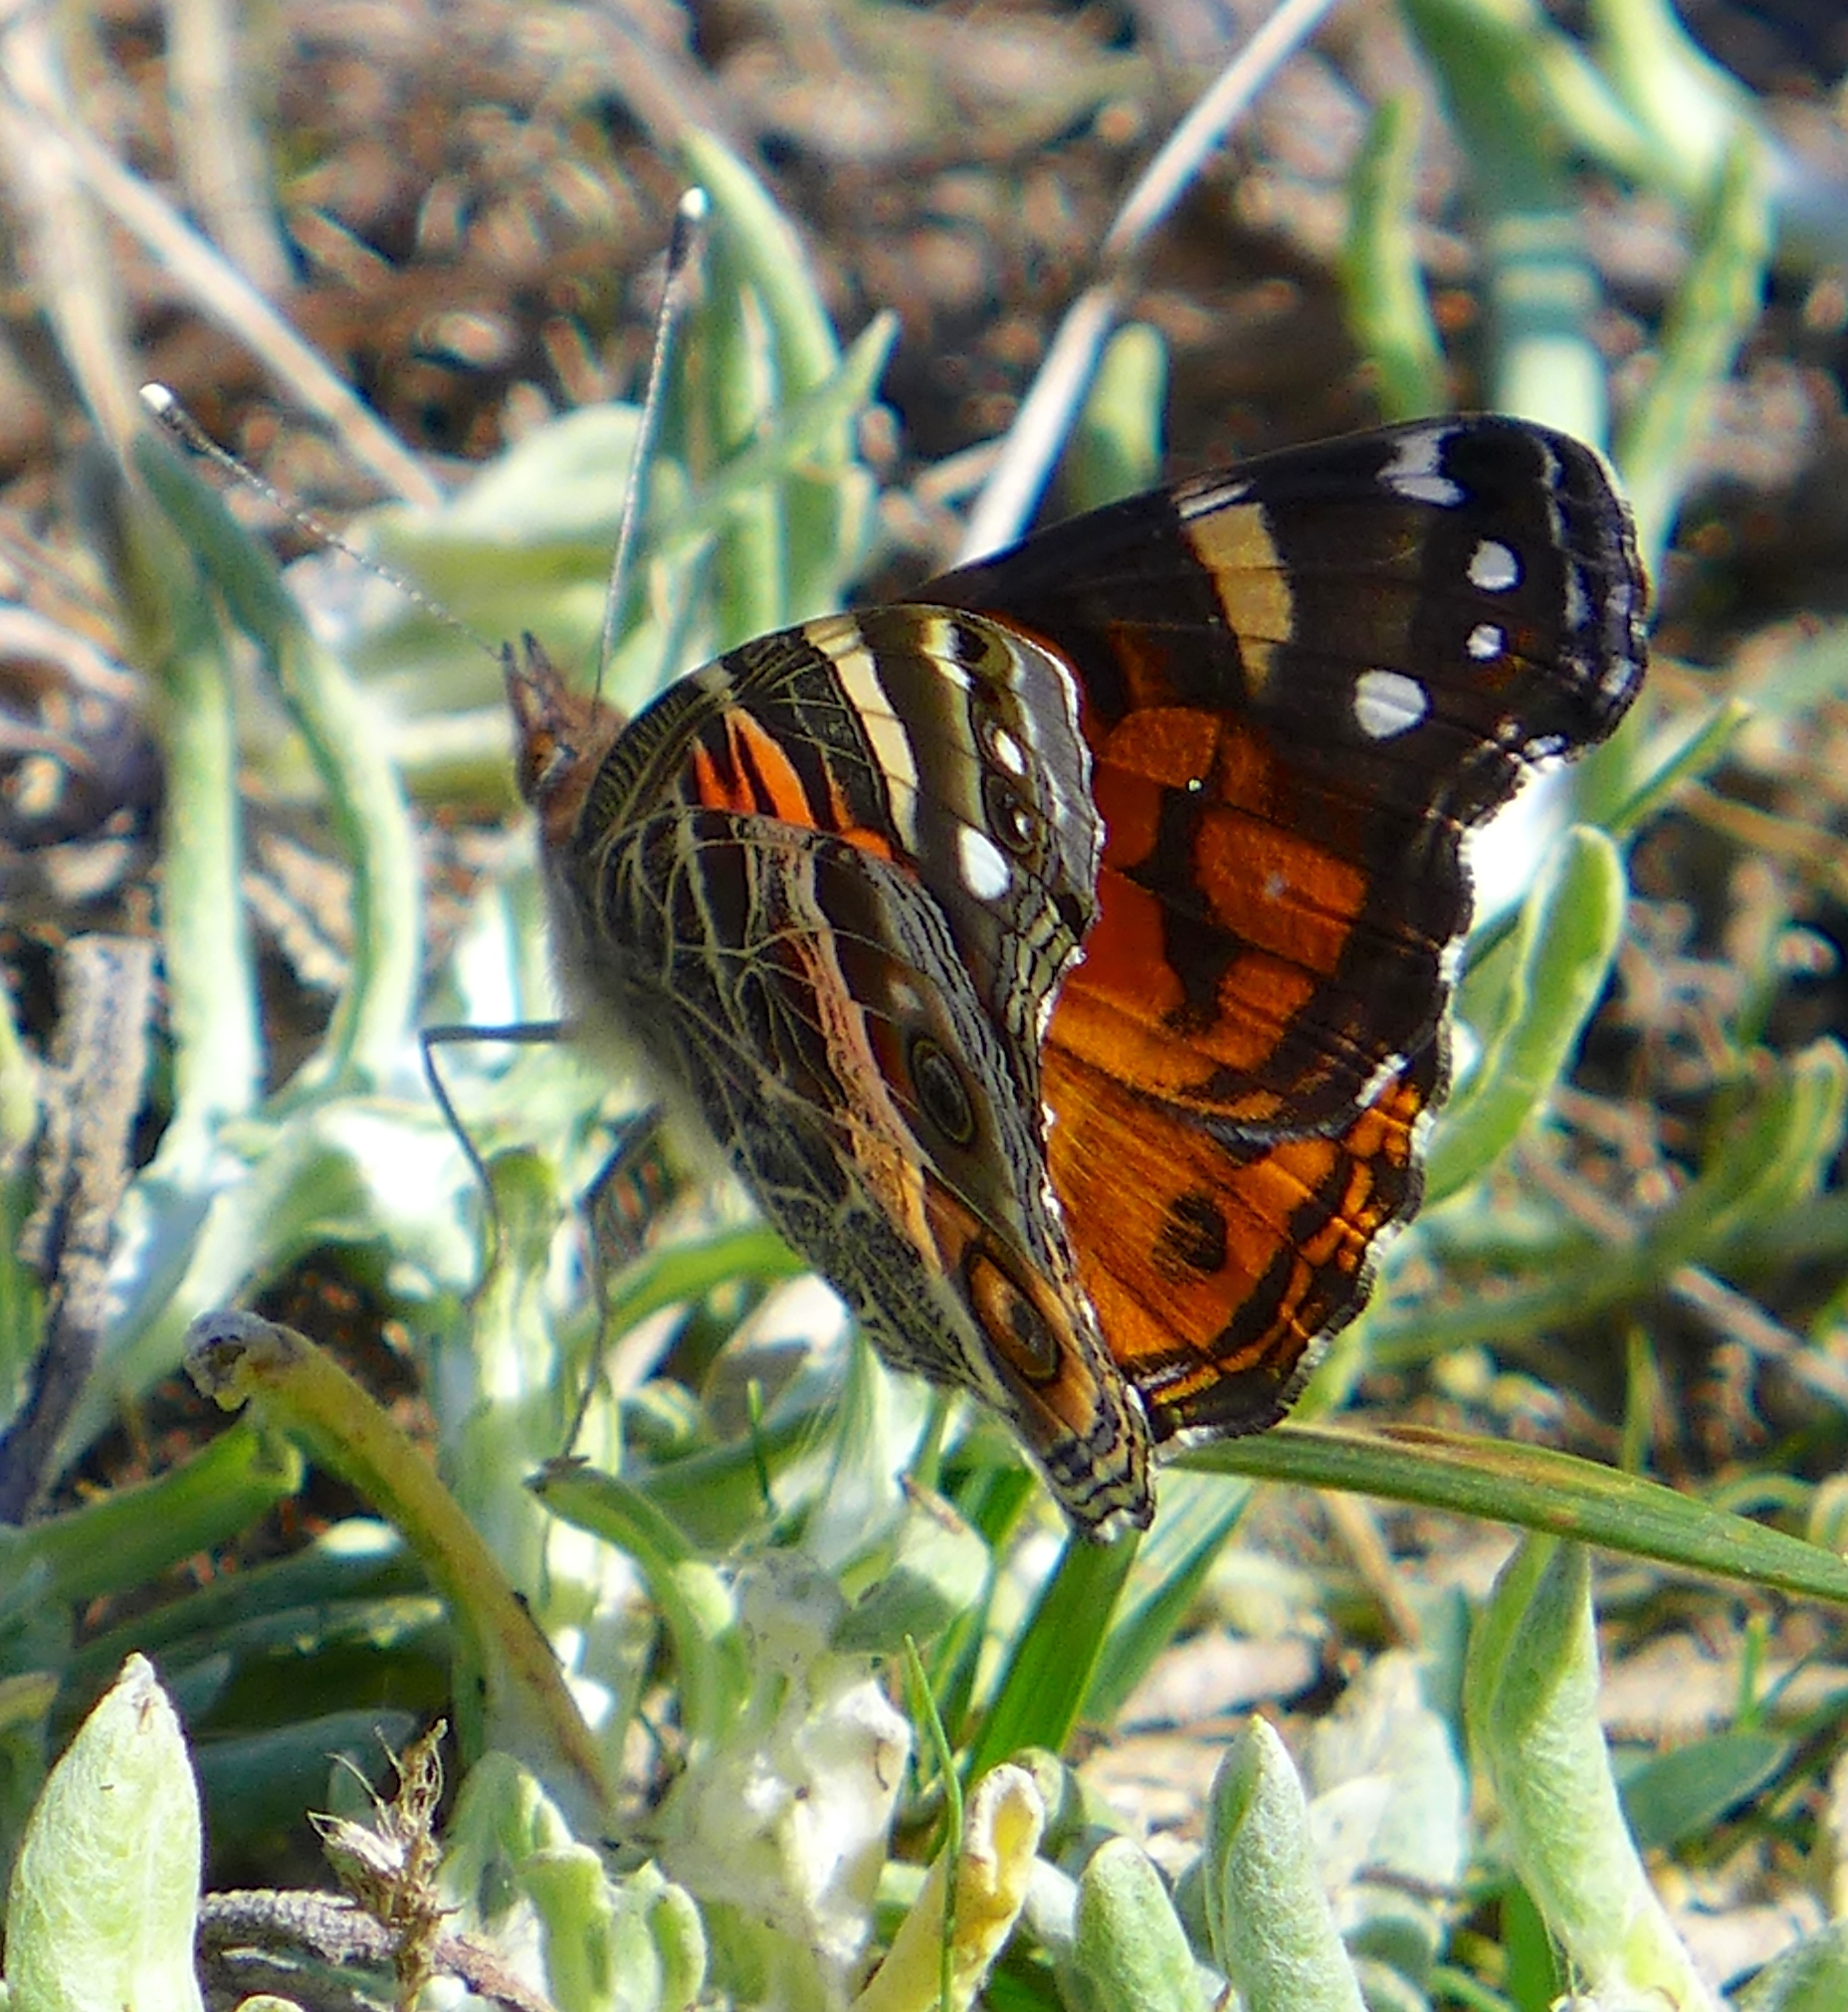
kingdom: Animalia
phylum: Arthropoda
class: Insecta
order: Lepidoptera
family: Nymphalidae
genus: Vanessa
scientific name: Vanessa virginiensis
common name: American lady
